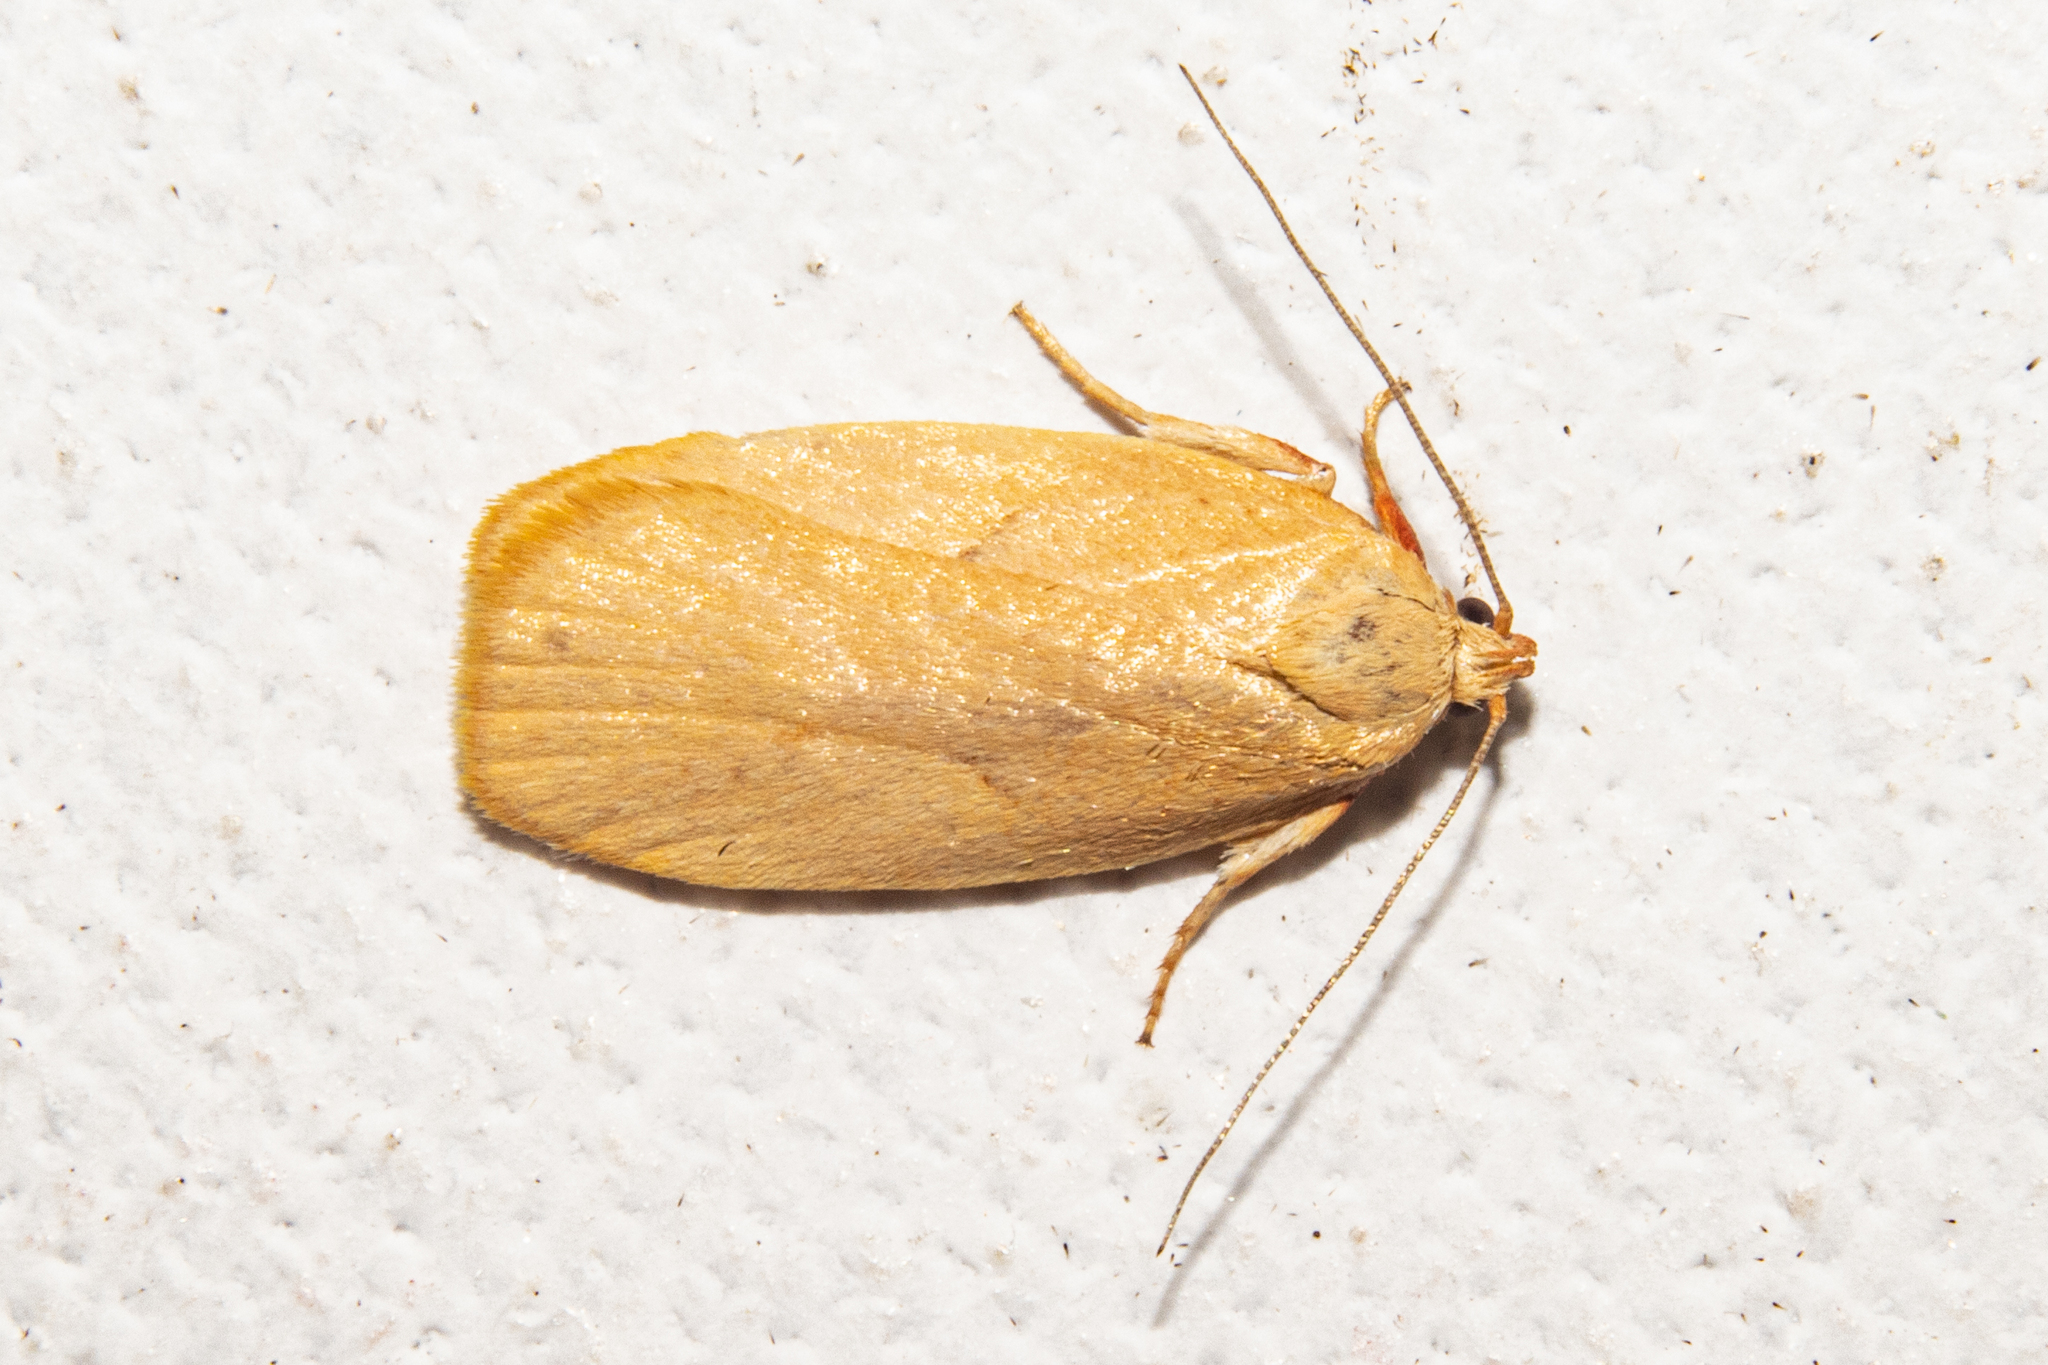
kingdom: Animalia
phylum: Arthropoda
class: Insecta
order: Lepidoptera
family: Oecophoridae
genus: Proteodes
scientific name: Proteodes carnifex
